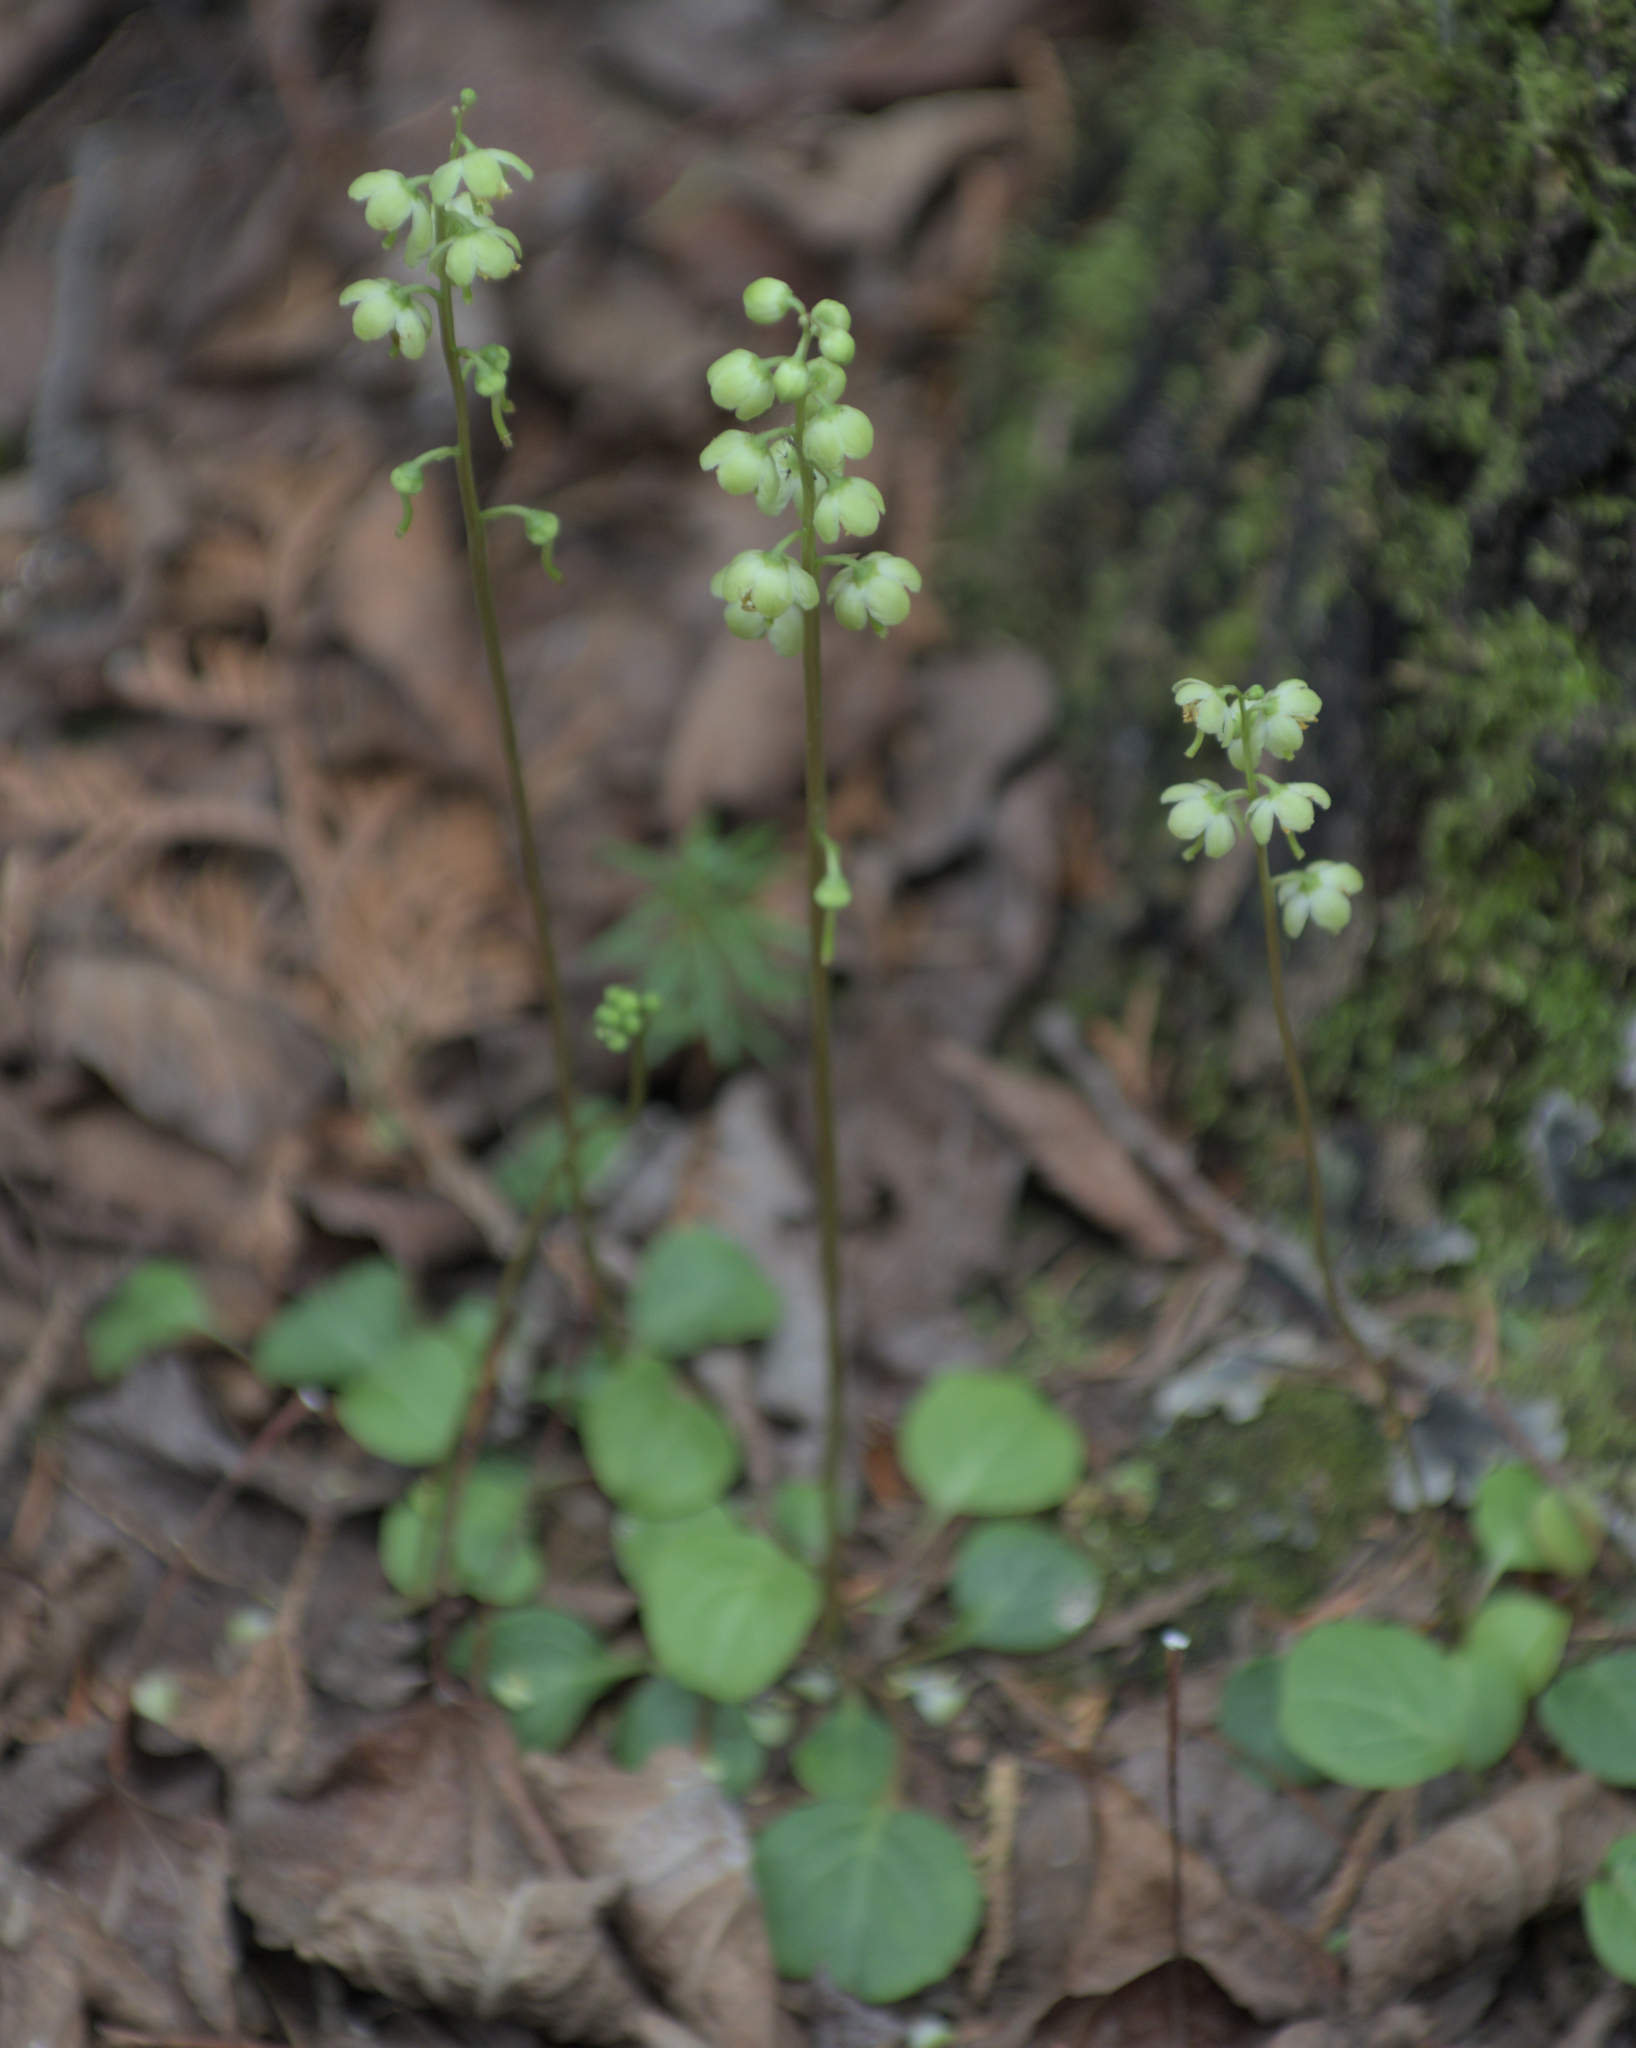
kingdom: Plantae
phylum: Tracheophyta
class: Magnoliopsida
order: Ericales
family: Ericaceae
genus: Pyrola
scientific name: Pyrola chlorantha
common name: Green wintergreen
